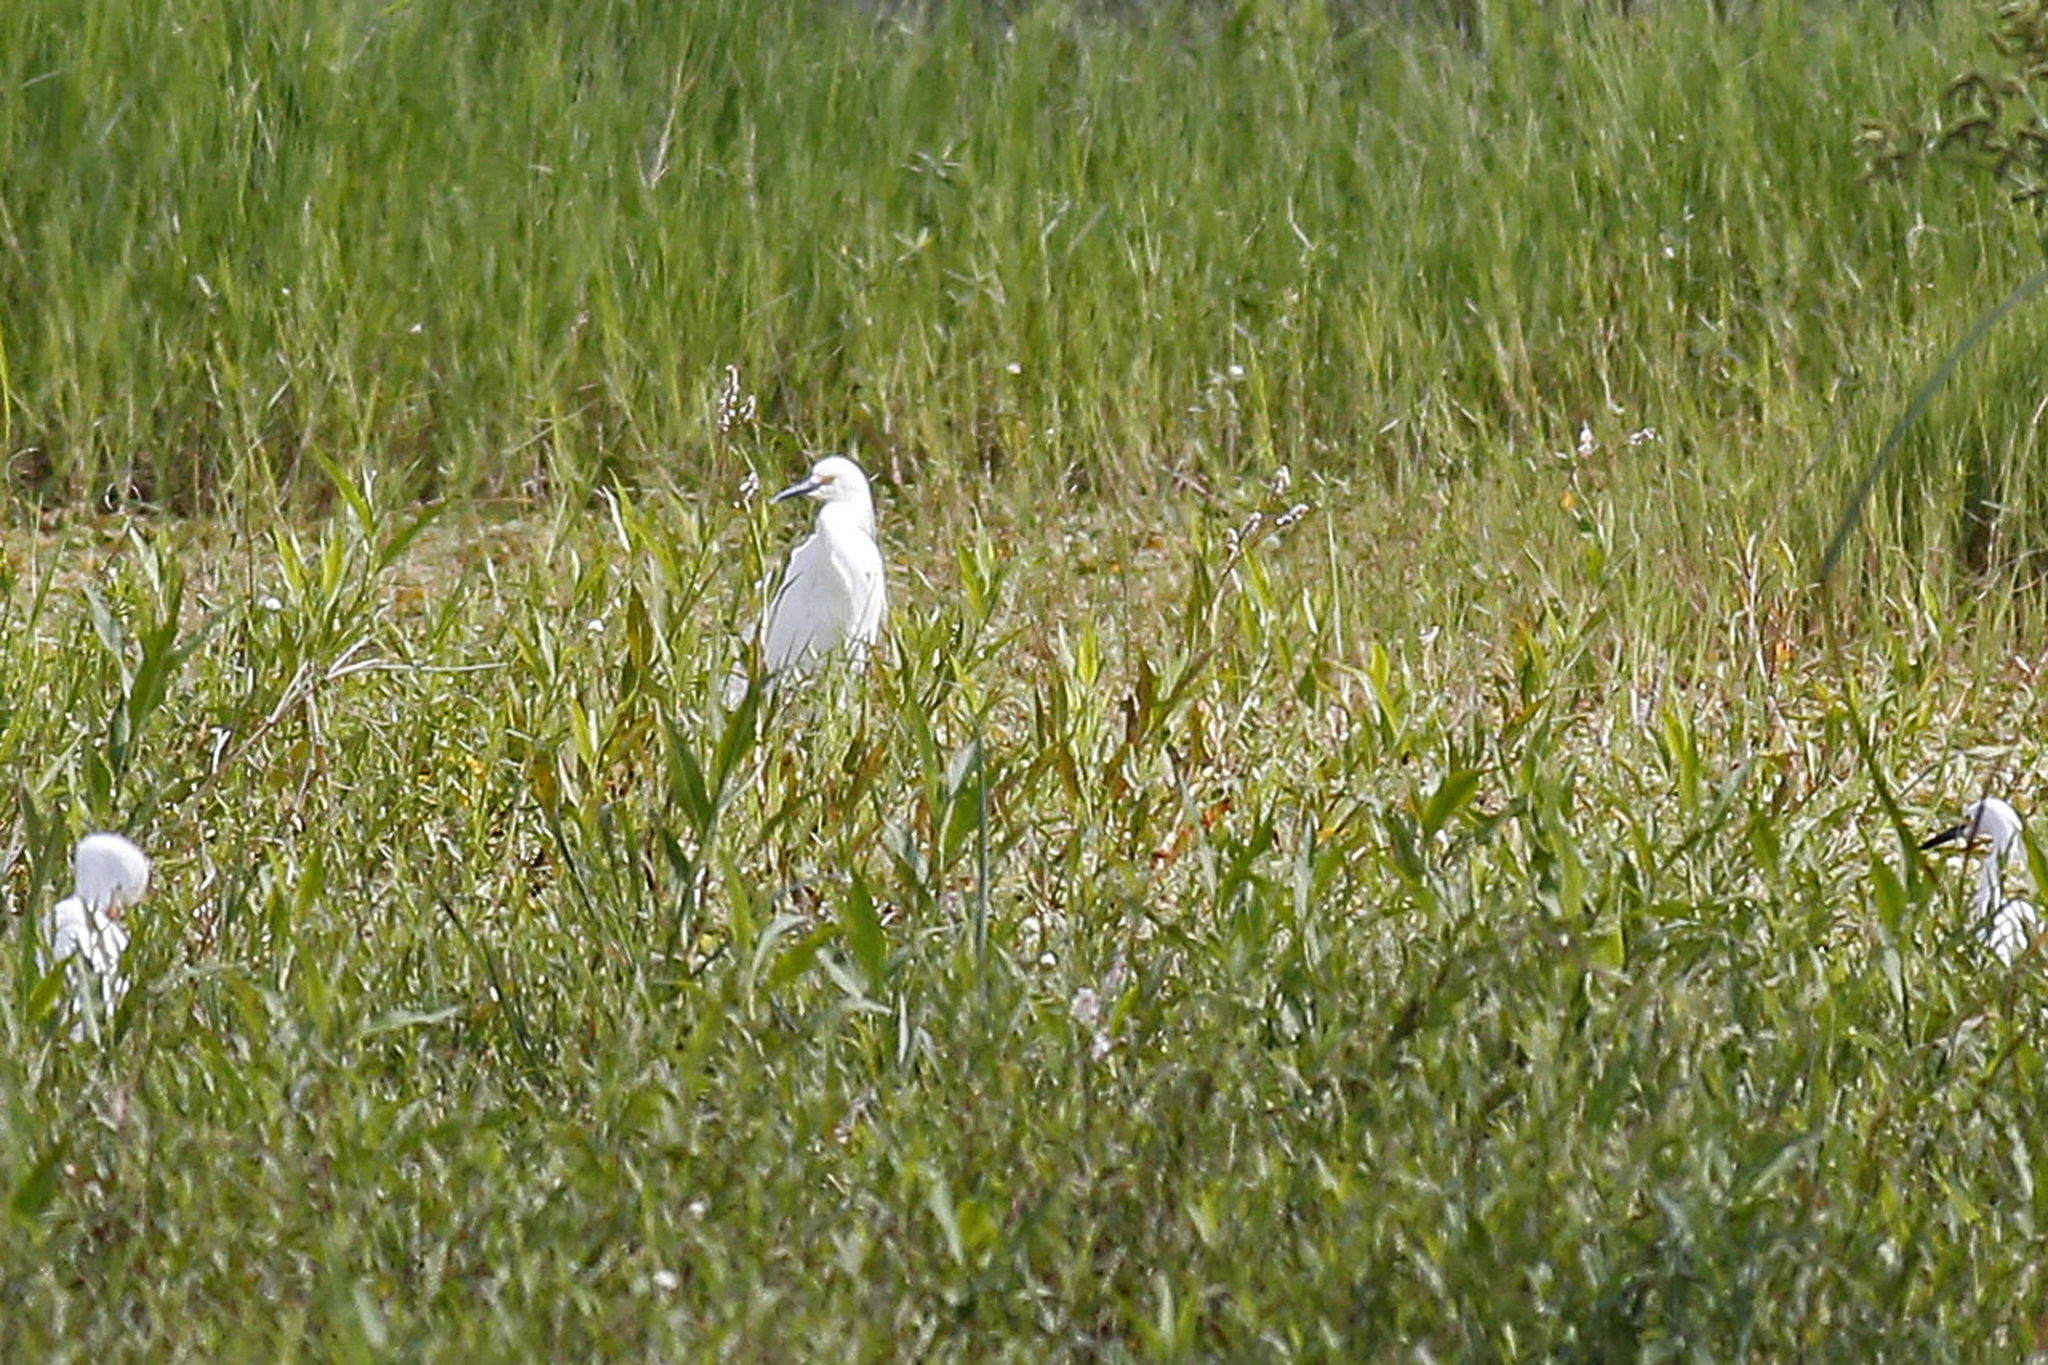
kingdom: Animalia
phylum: Chordata
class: Aves
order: Pelecaniformes
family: Ardeidae
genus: Egretta
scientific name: Egretta thula
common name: Snowy egret
